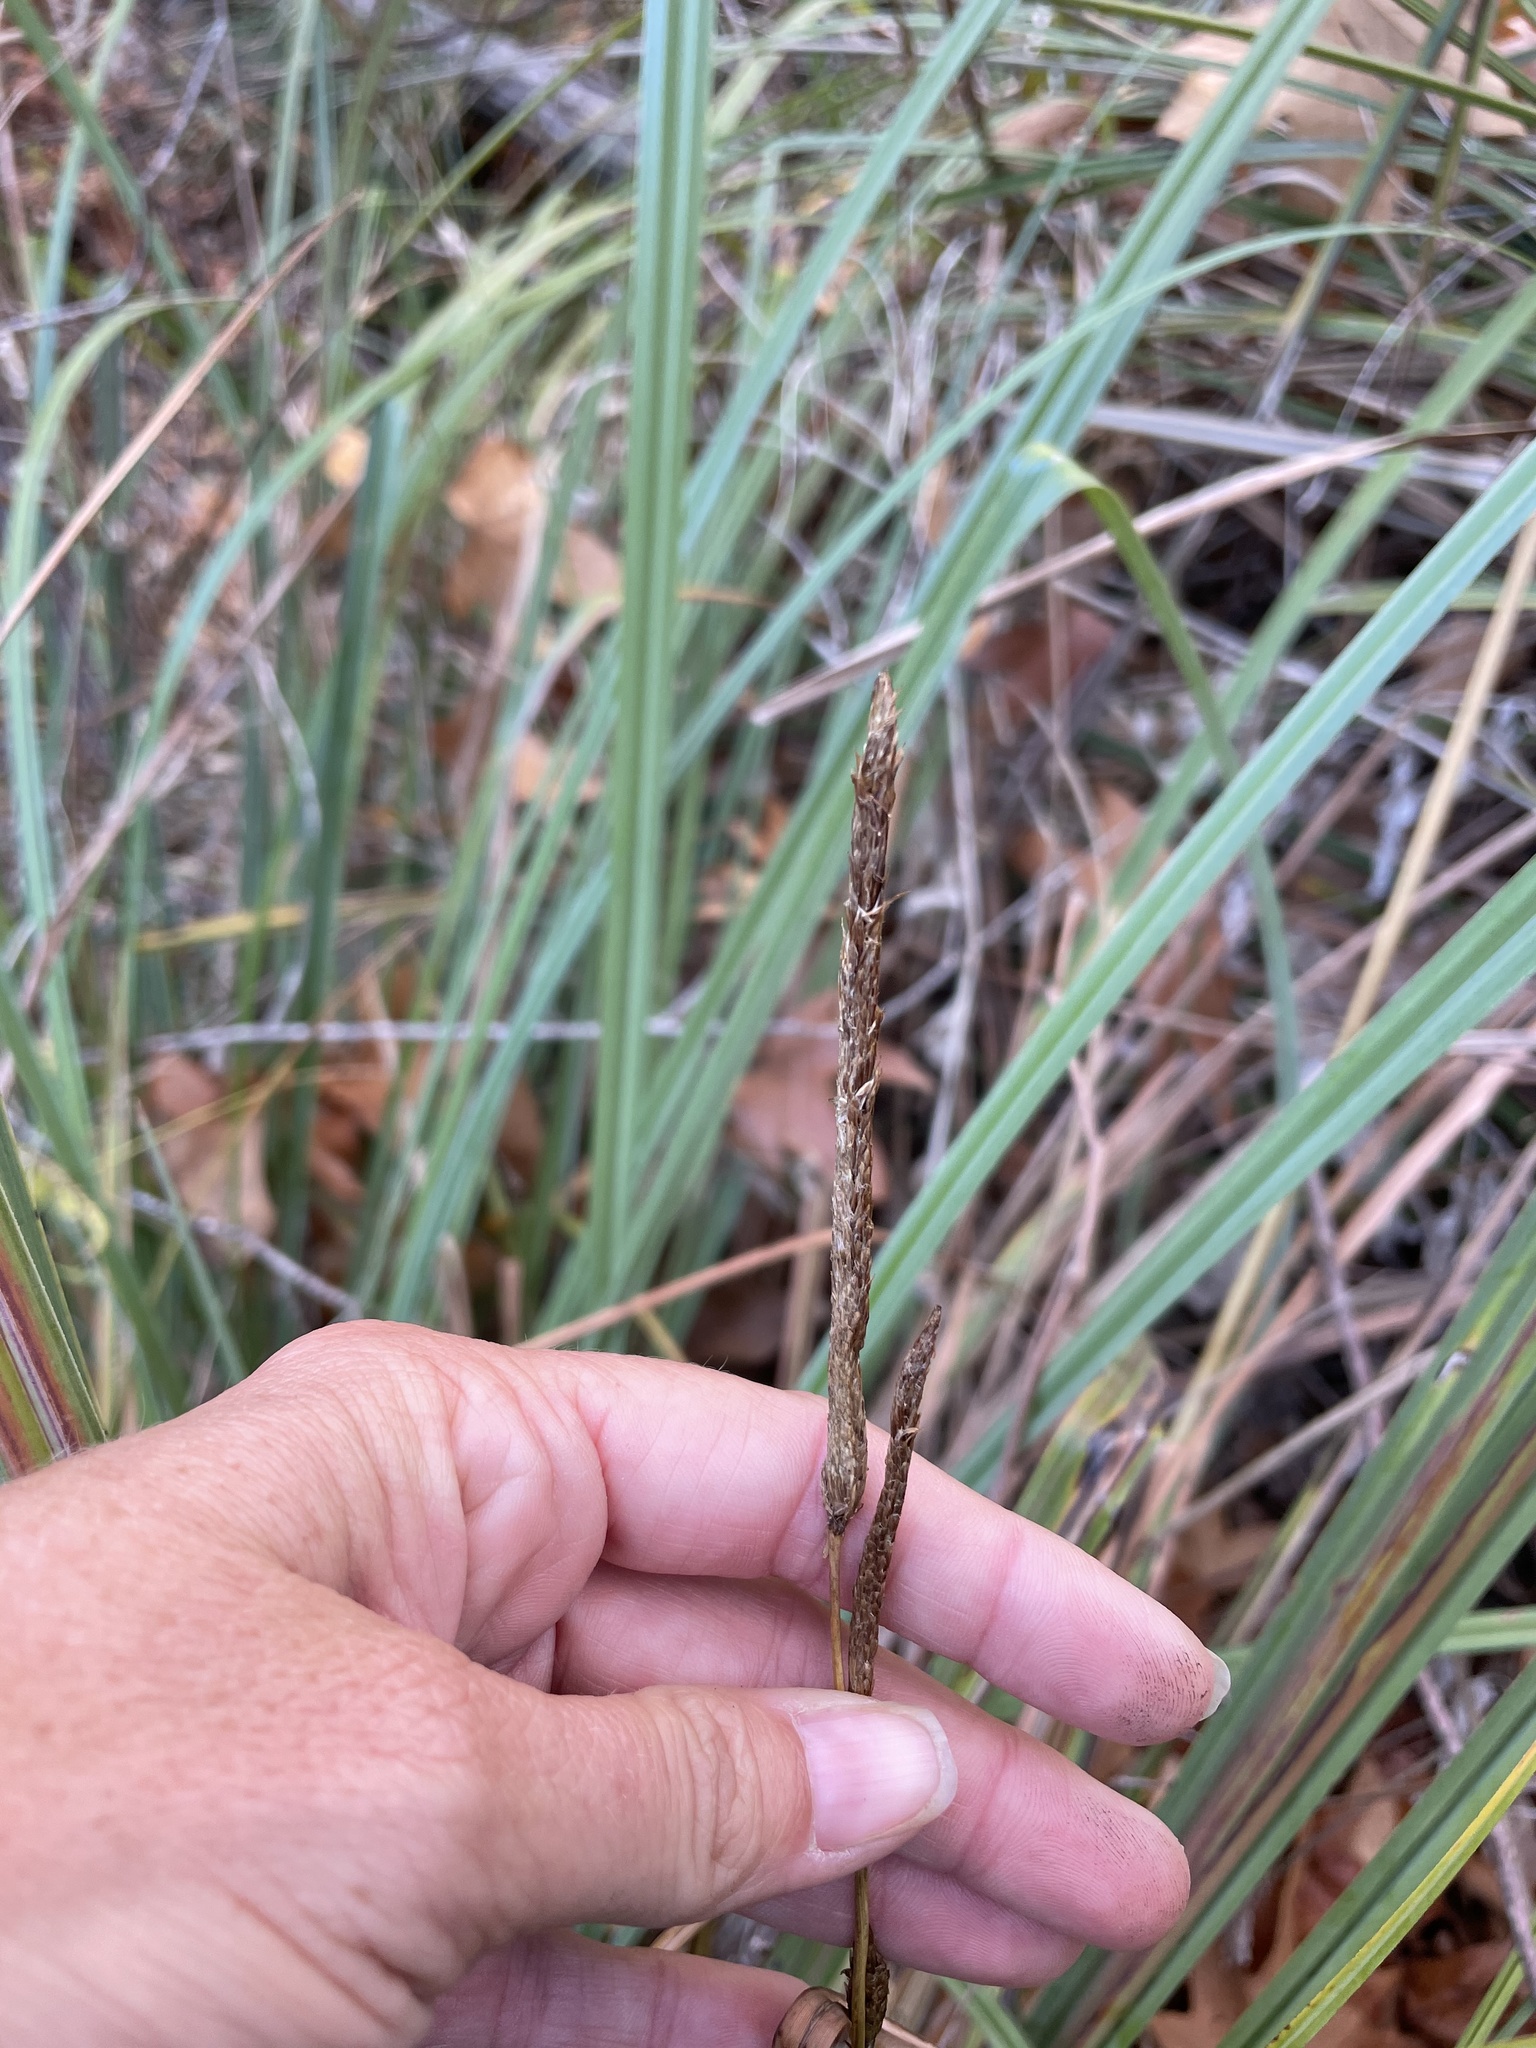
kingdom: Plantae
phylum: Tracheophyta
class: Liliopsida
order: Poales
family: Cyperaceae
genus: Carex
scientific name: Carex spissa
